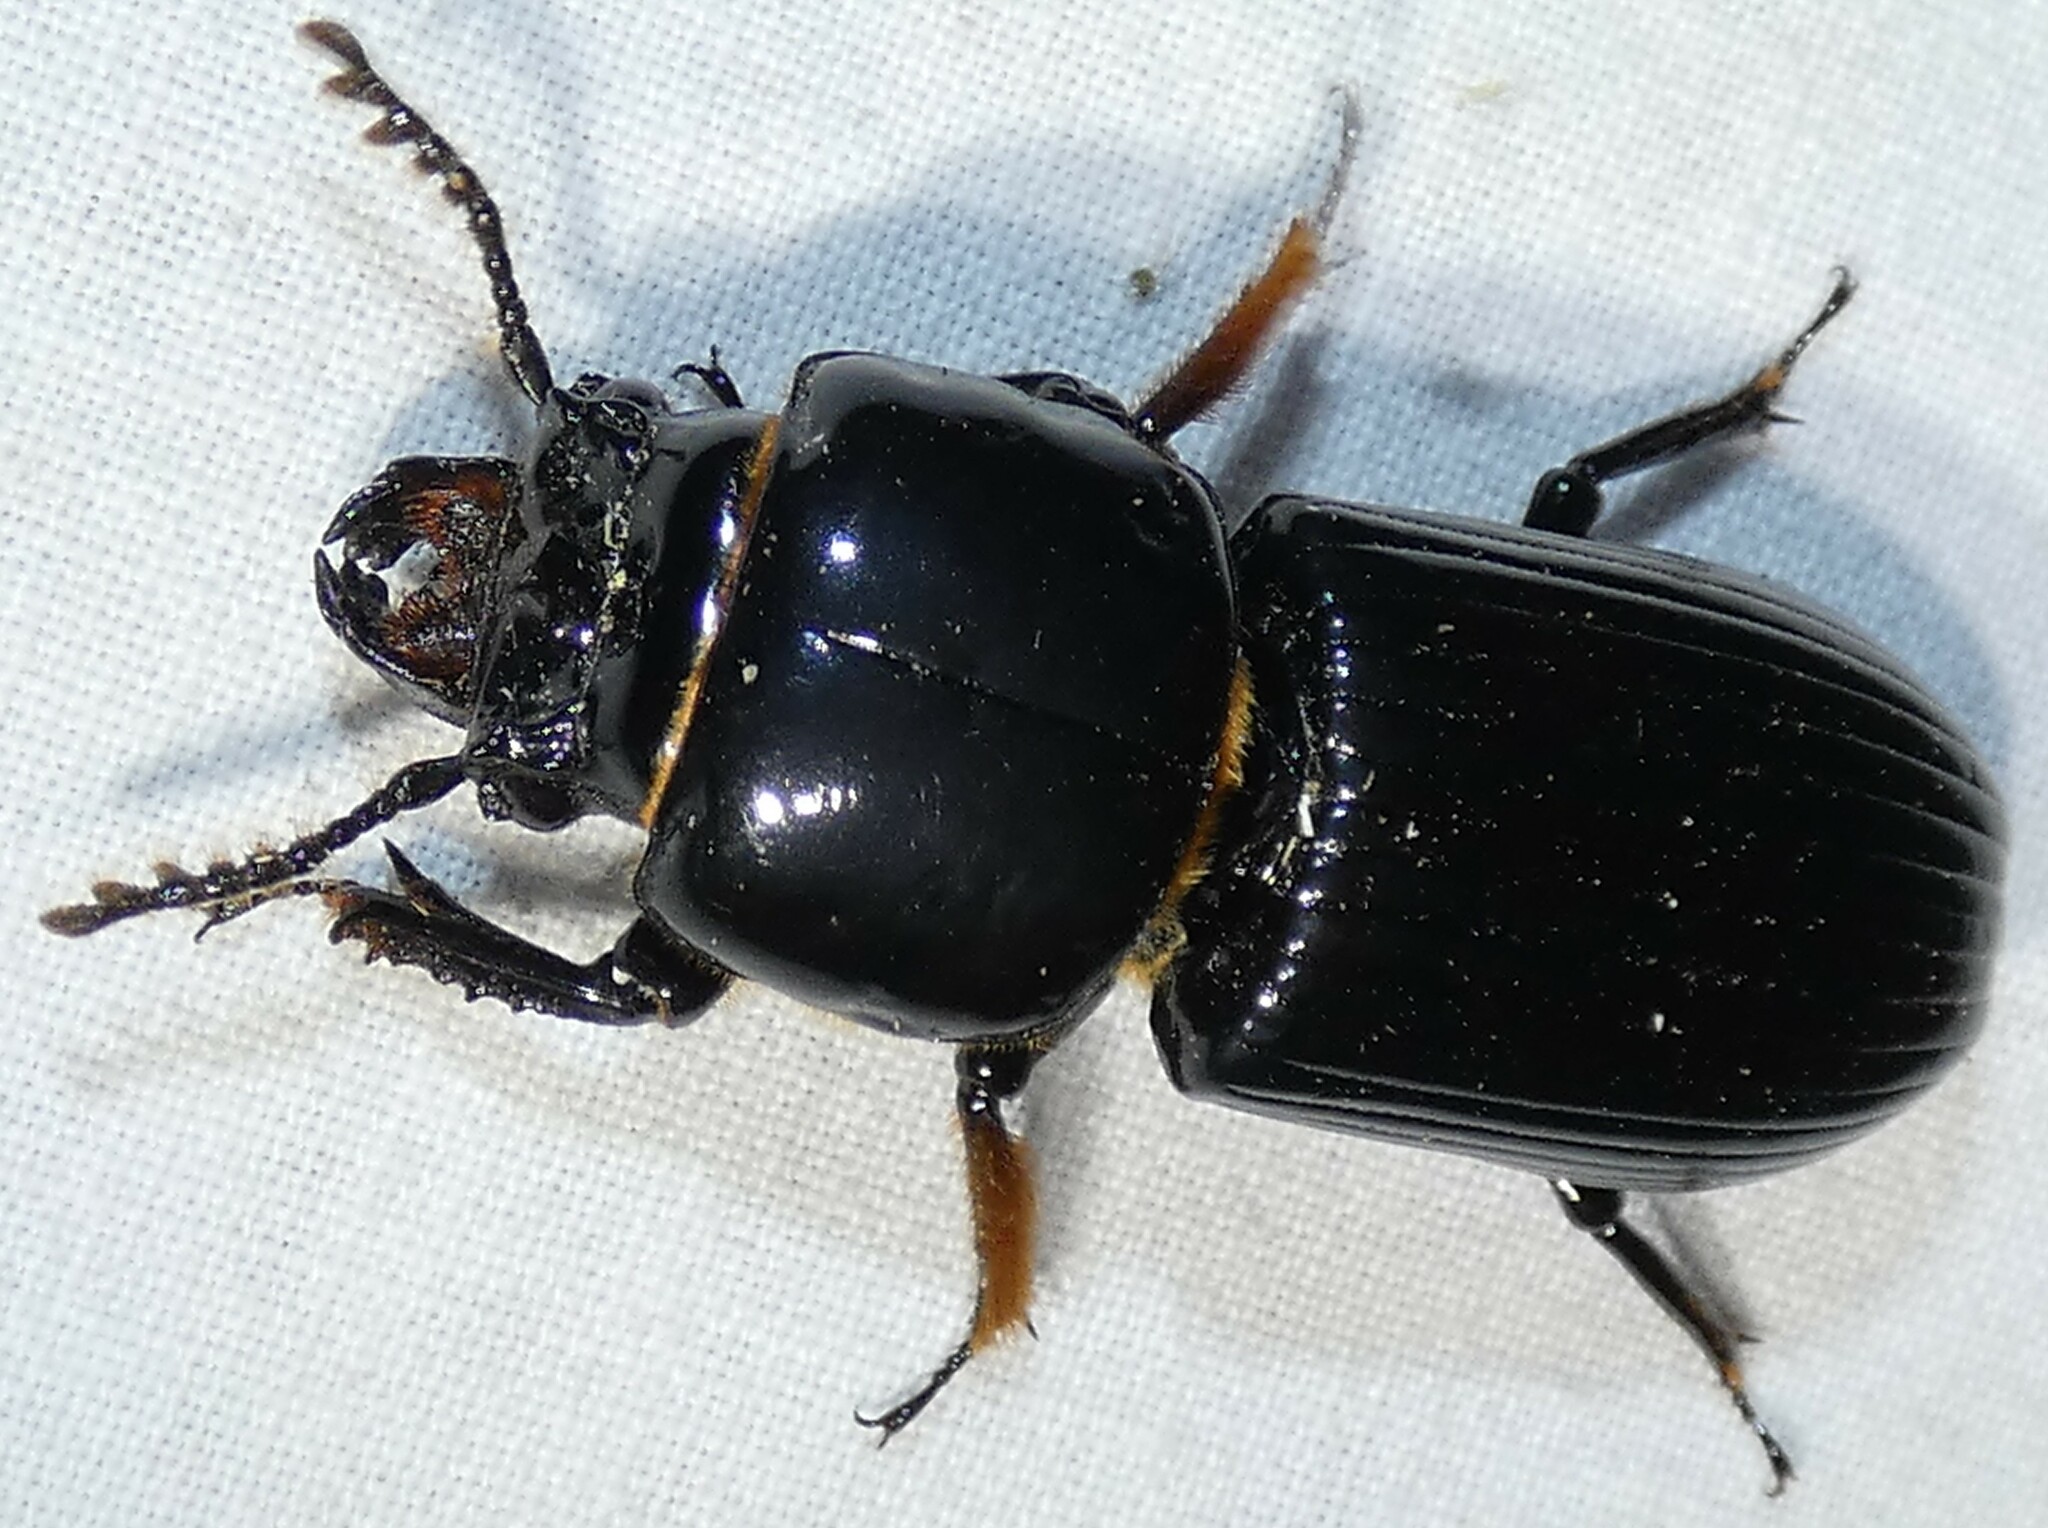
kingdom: Animalia
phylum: Arthropoda
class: Insecta
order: Coleoptera
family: Passalidae
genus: Odontotaenius
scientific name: Odontotaenius disjunctus
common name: Patent leather beetle
